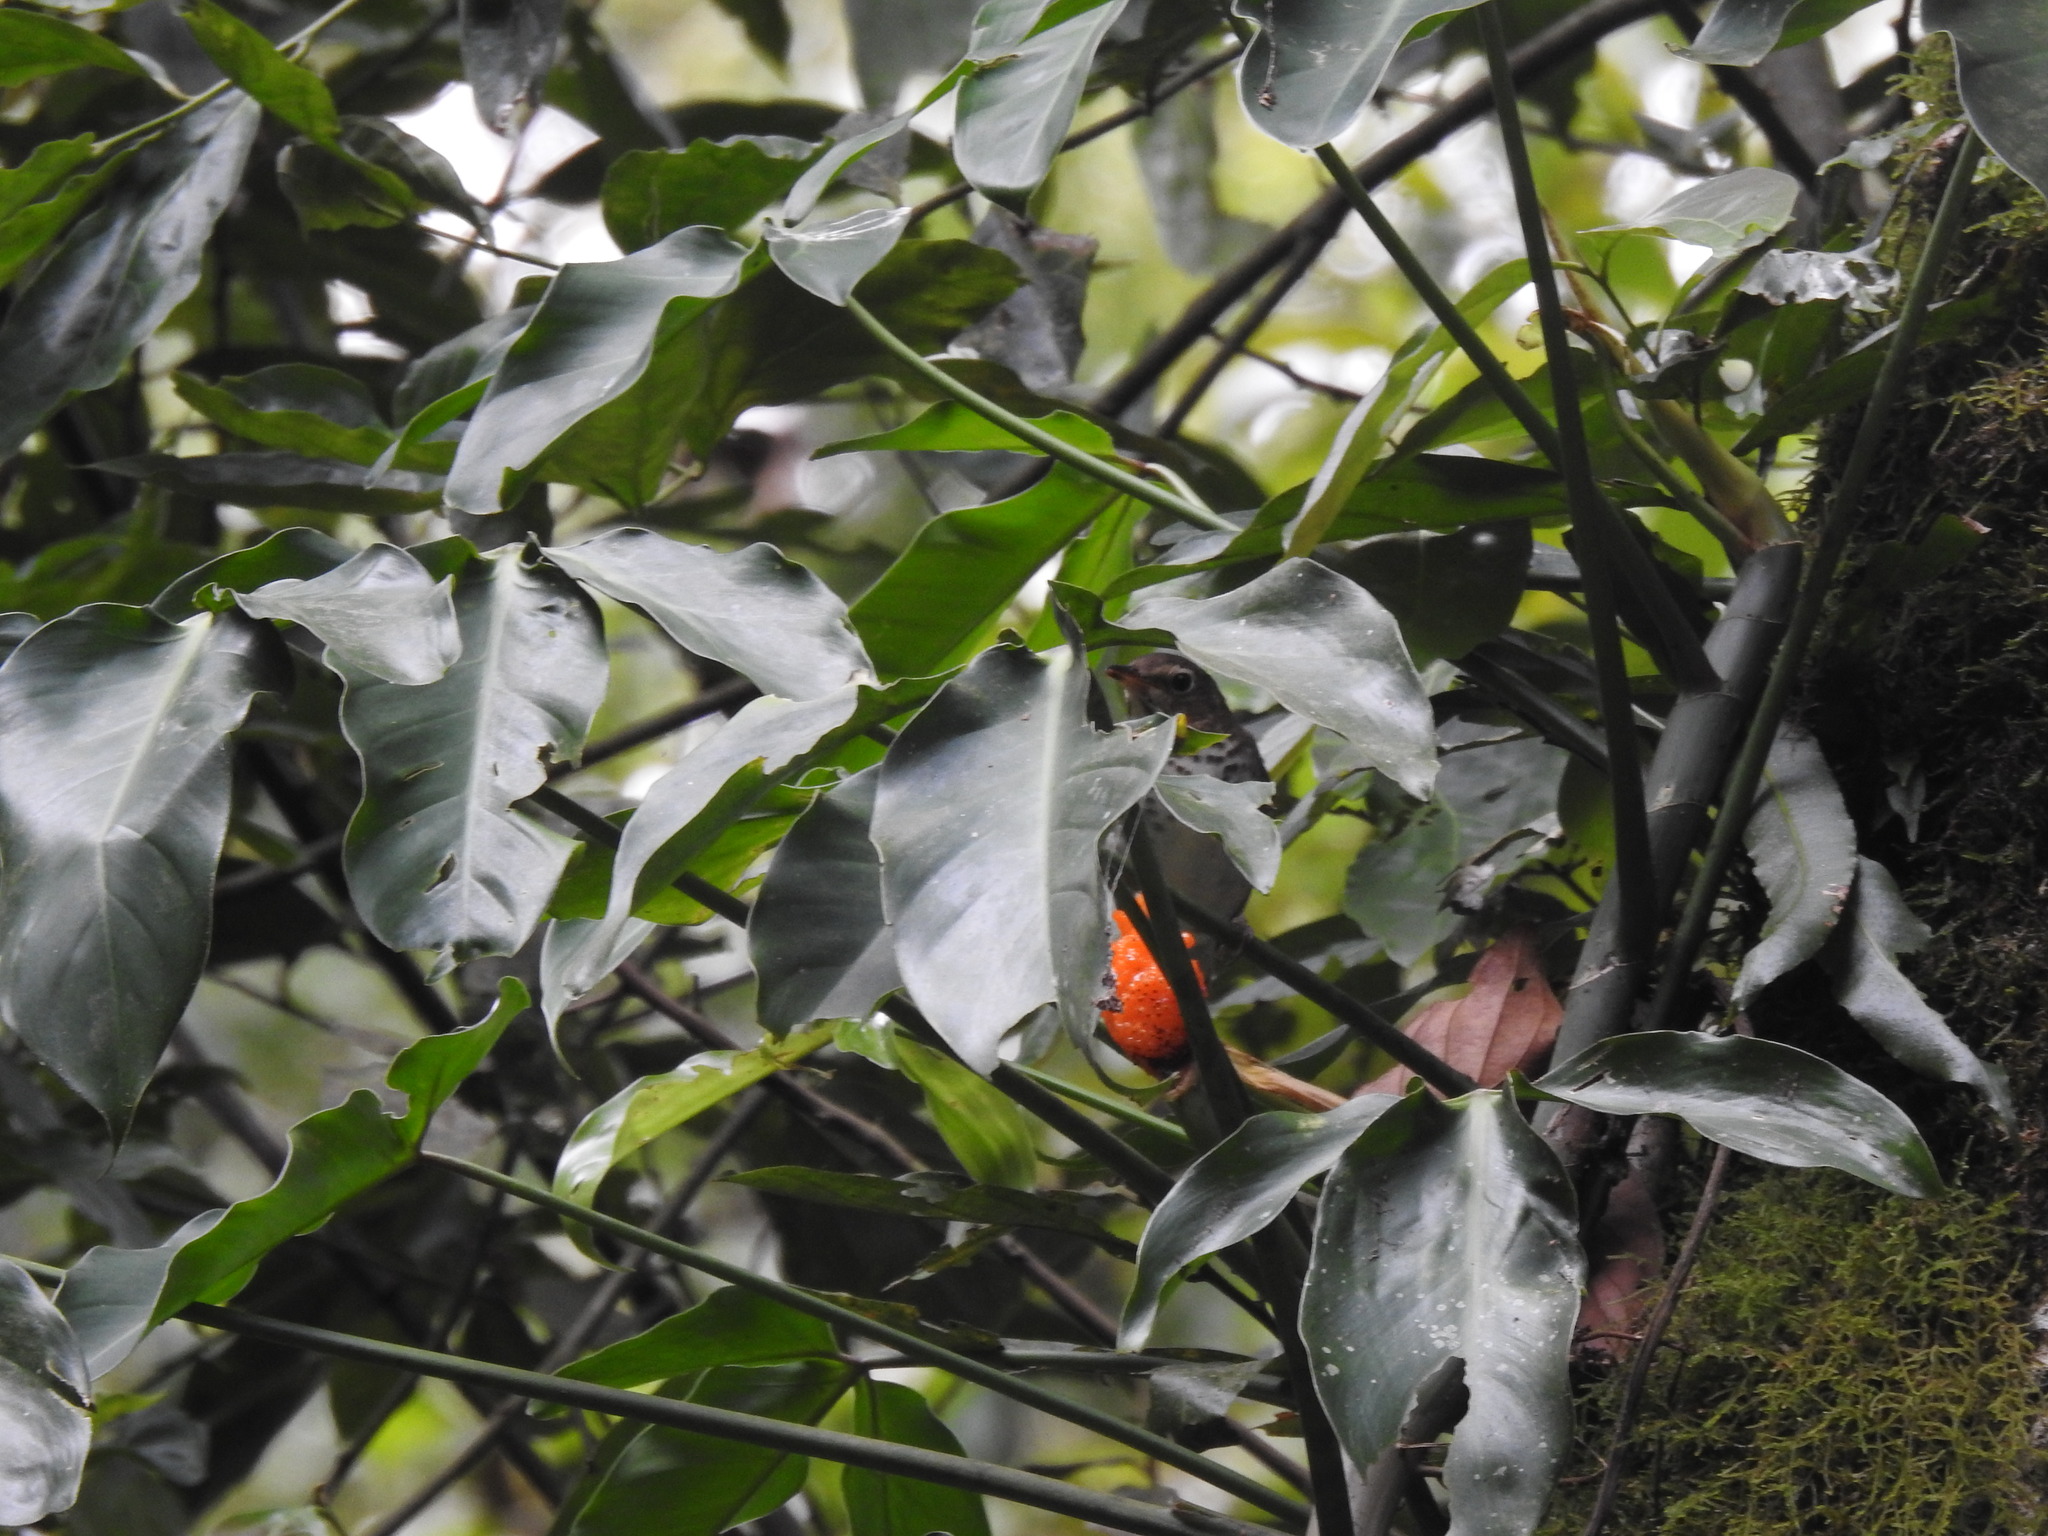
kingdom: Animalia
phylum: Chordata
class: Aves
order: Passeriformes
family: Turdidae
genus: Catharus
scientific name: Catharus ustulatus
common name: Swainson's thrush
